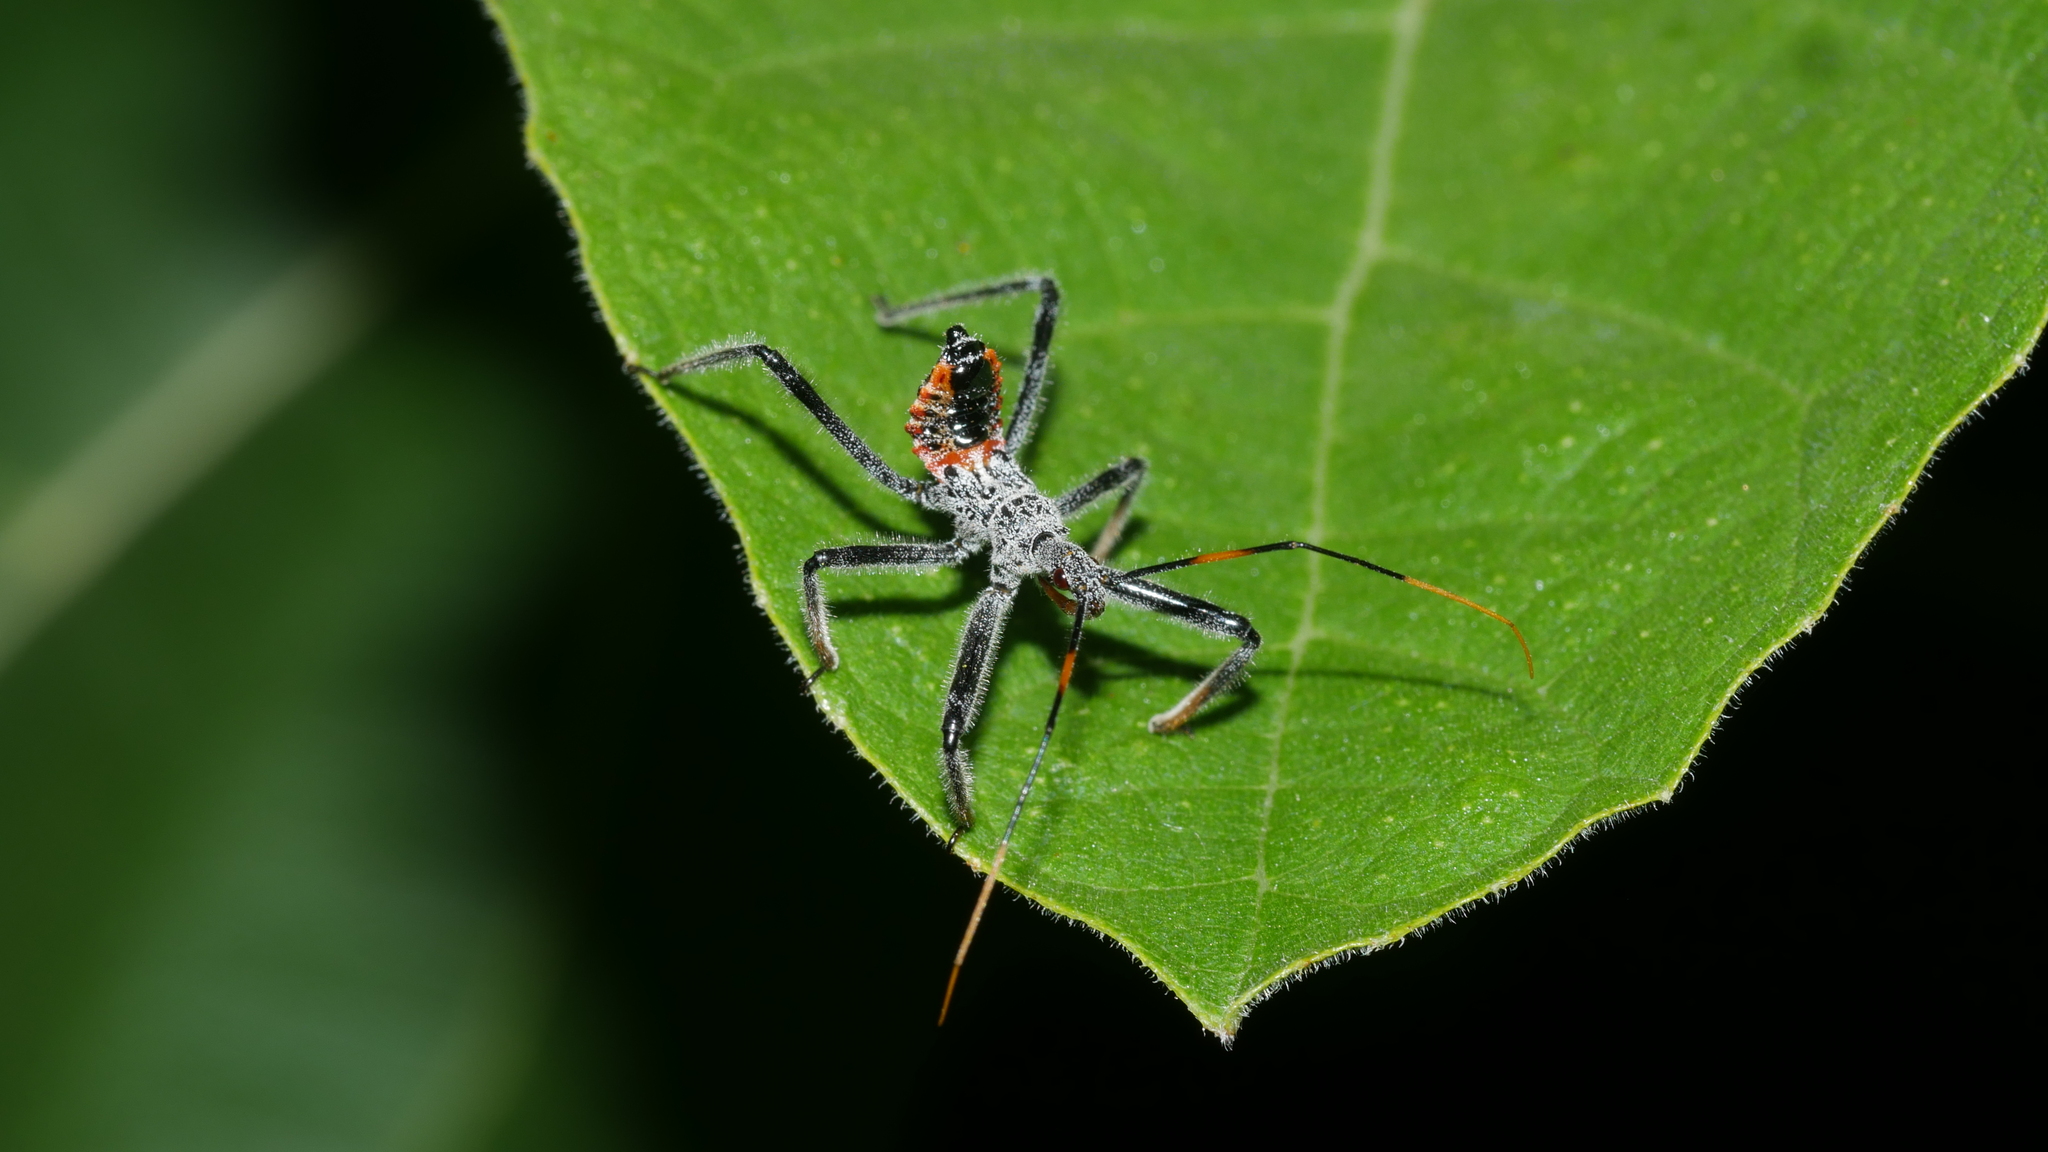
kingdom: Animalia
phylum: Arthropoda
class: Insecta
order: Hemiptera
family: Reduviidae
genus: Arilus
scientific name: Arilus cristatus
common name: North american wheel bug
